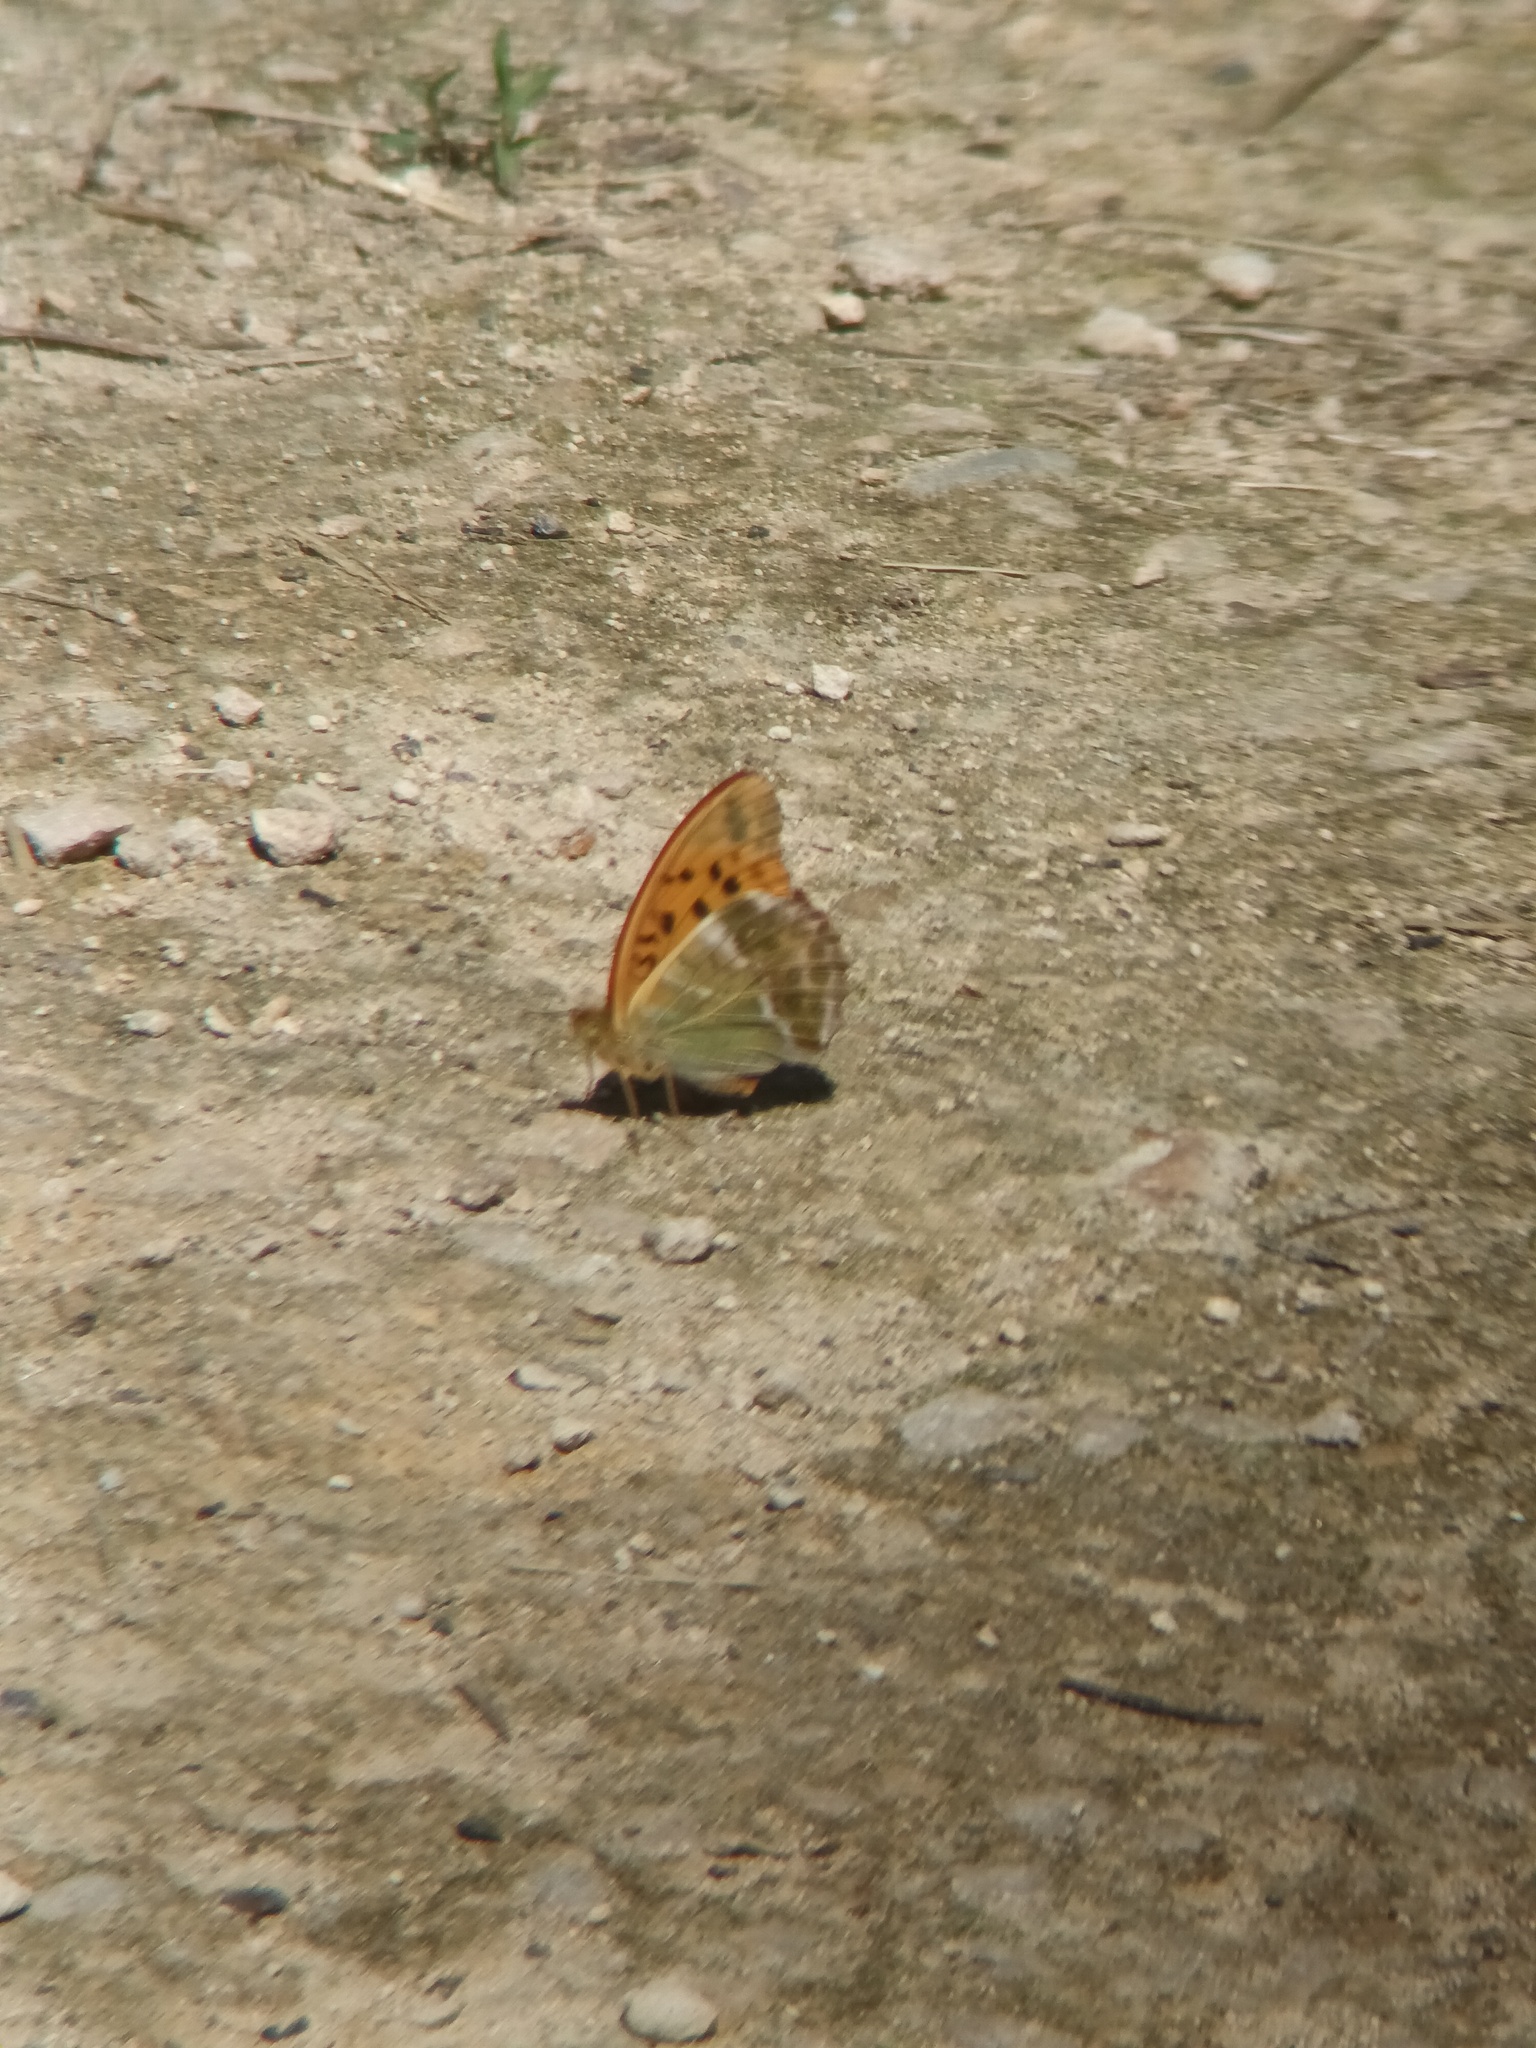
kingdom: Animalia
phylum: Arthropoda
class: Insecta
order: Lepidoptera
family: Nymphalidae
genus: Argynnis
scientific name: Argynnis paphia
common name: Silver-washed fritillary
